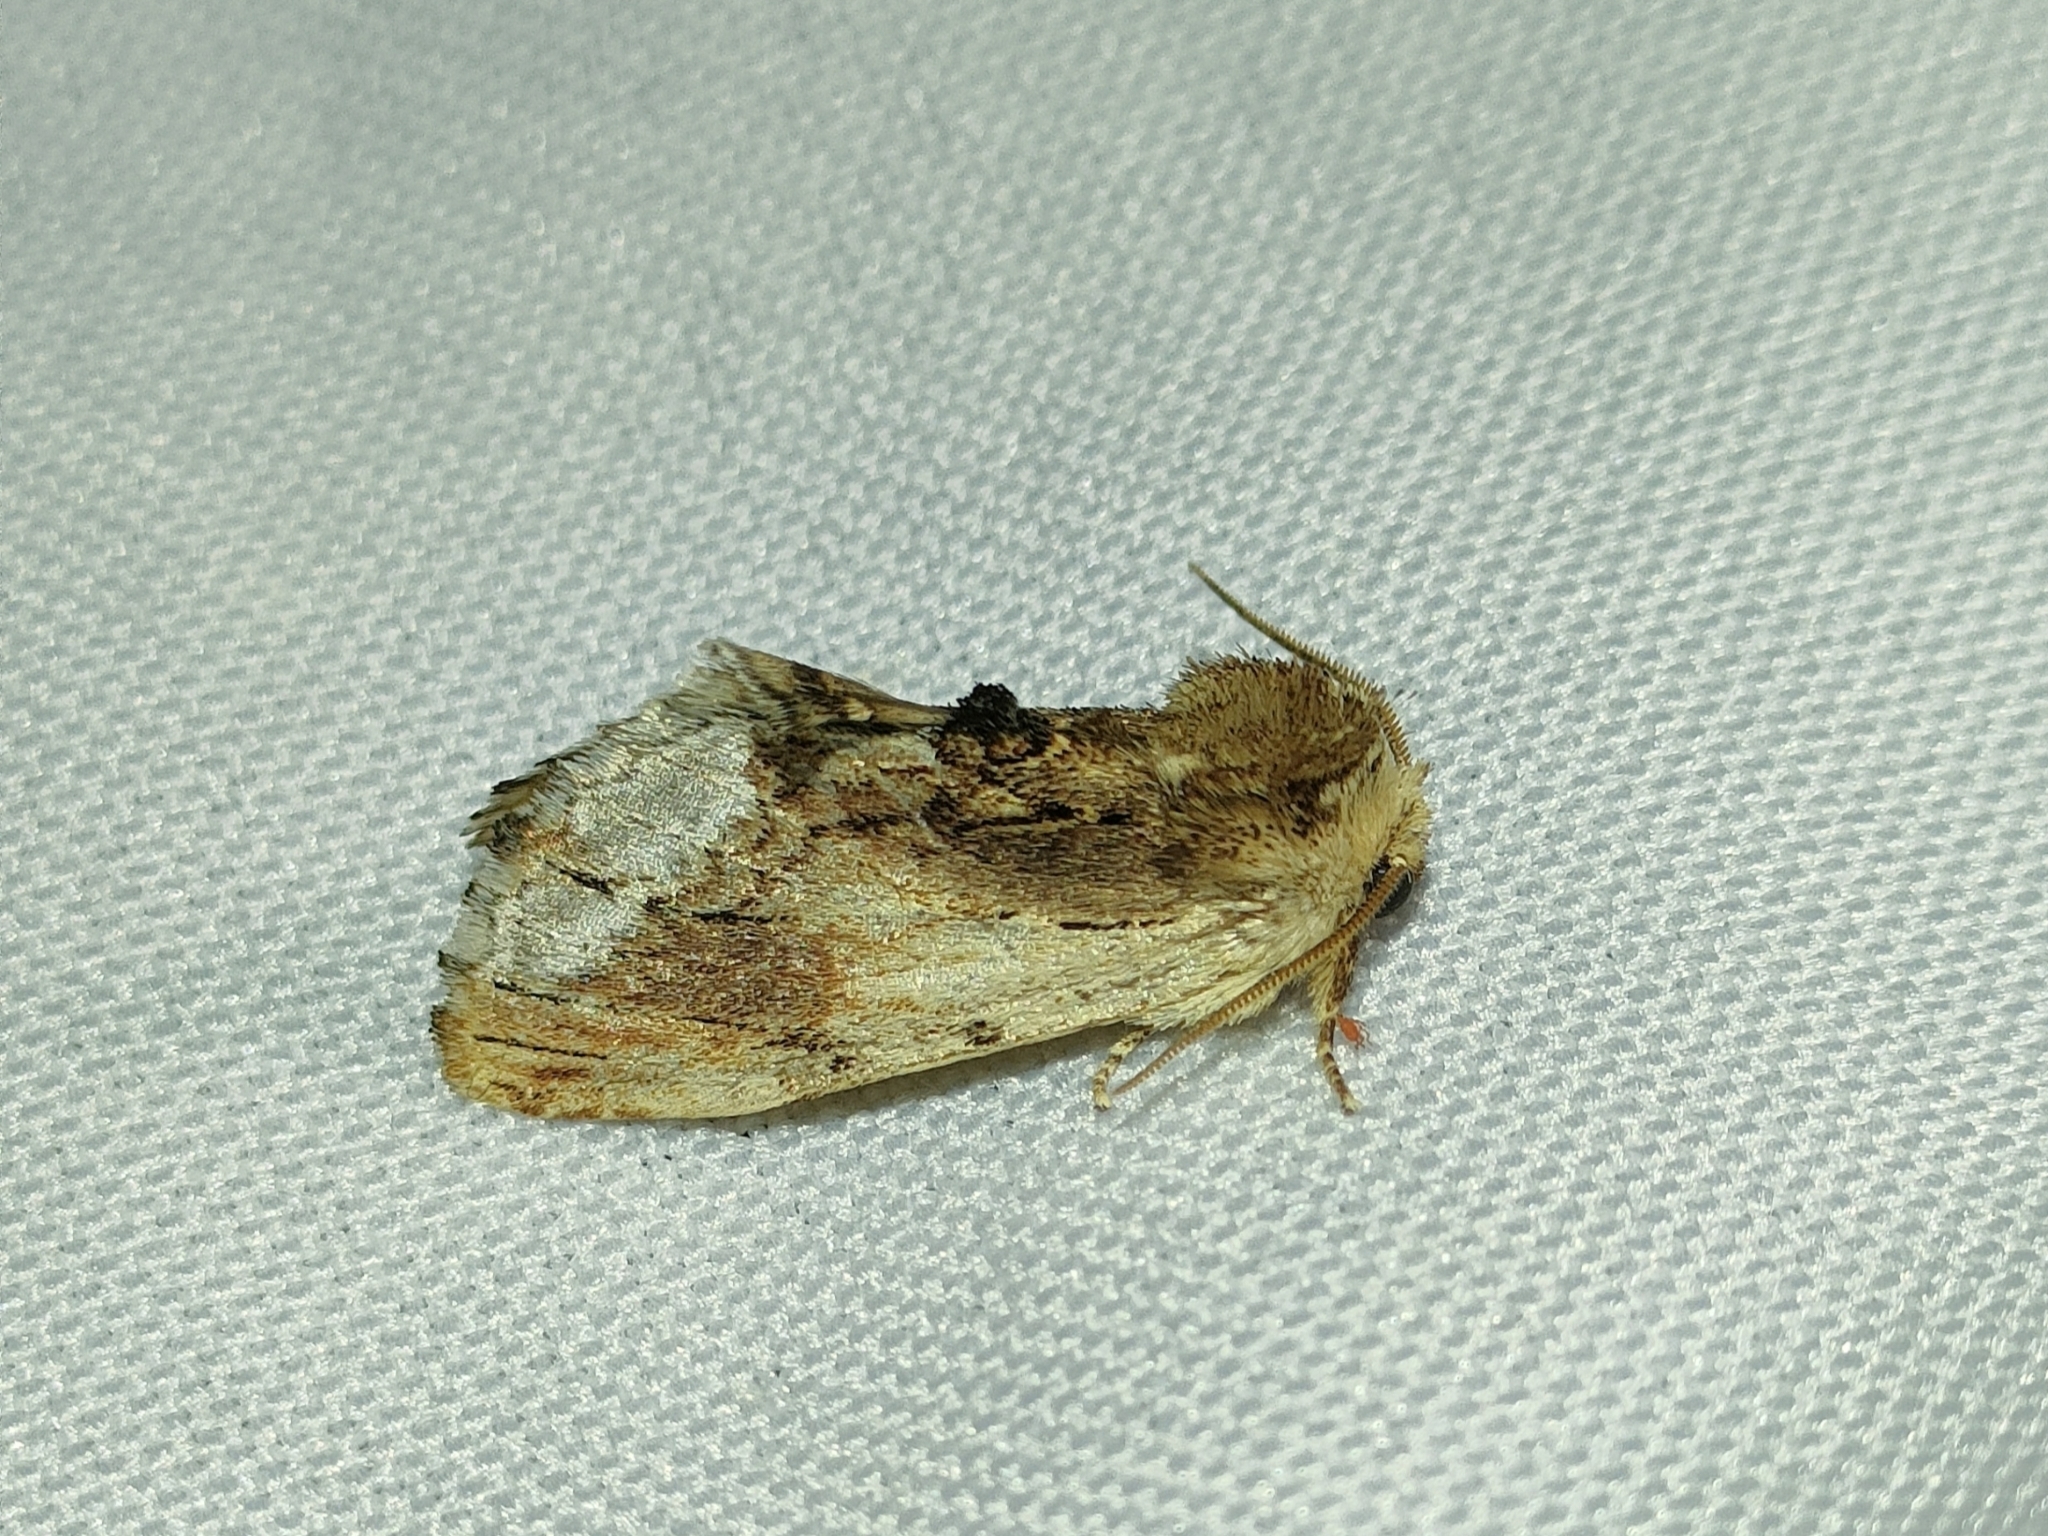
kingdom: Animalia
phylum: Arthropoda
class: Insecta
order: Lepidoptera
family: Notodontidae
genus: Ptilodon
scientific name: Ptilodon cucullina
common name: Maple prominent
